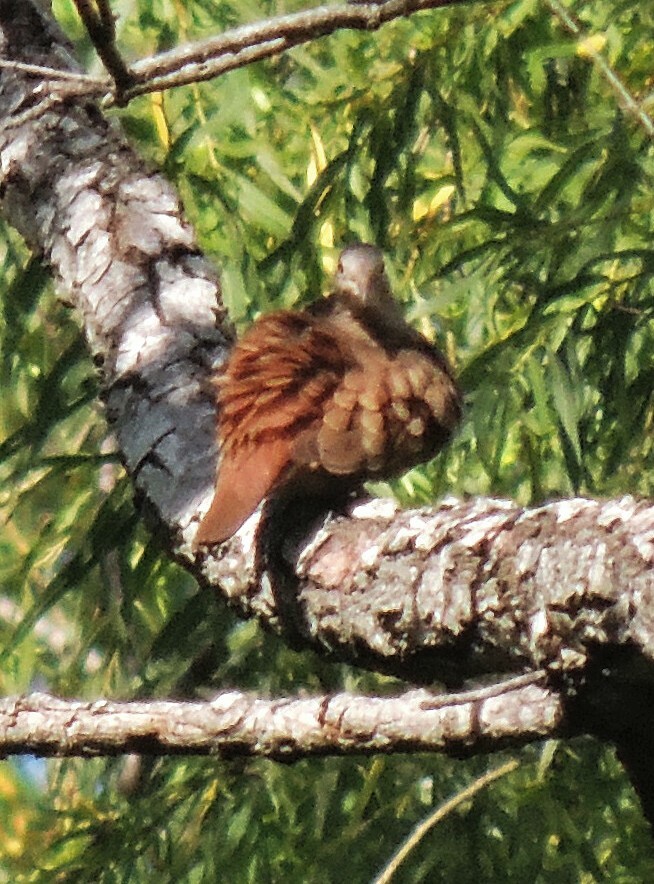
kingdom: Animalia
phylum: Chordata
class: Aves
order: Columbiformes
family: Columbidae
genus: Columbina
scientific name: Columbina talpacoti
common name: Ruddy ground dove
